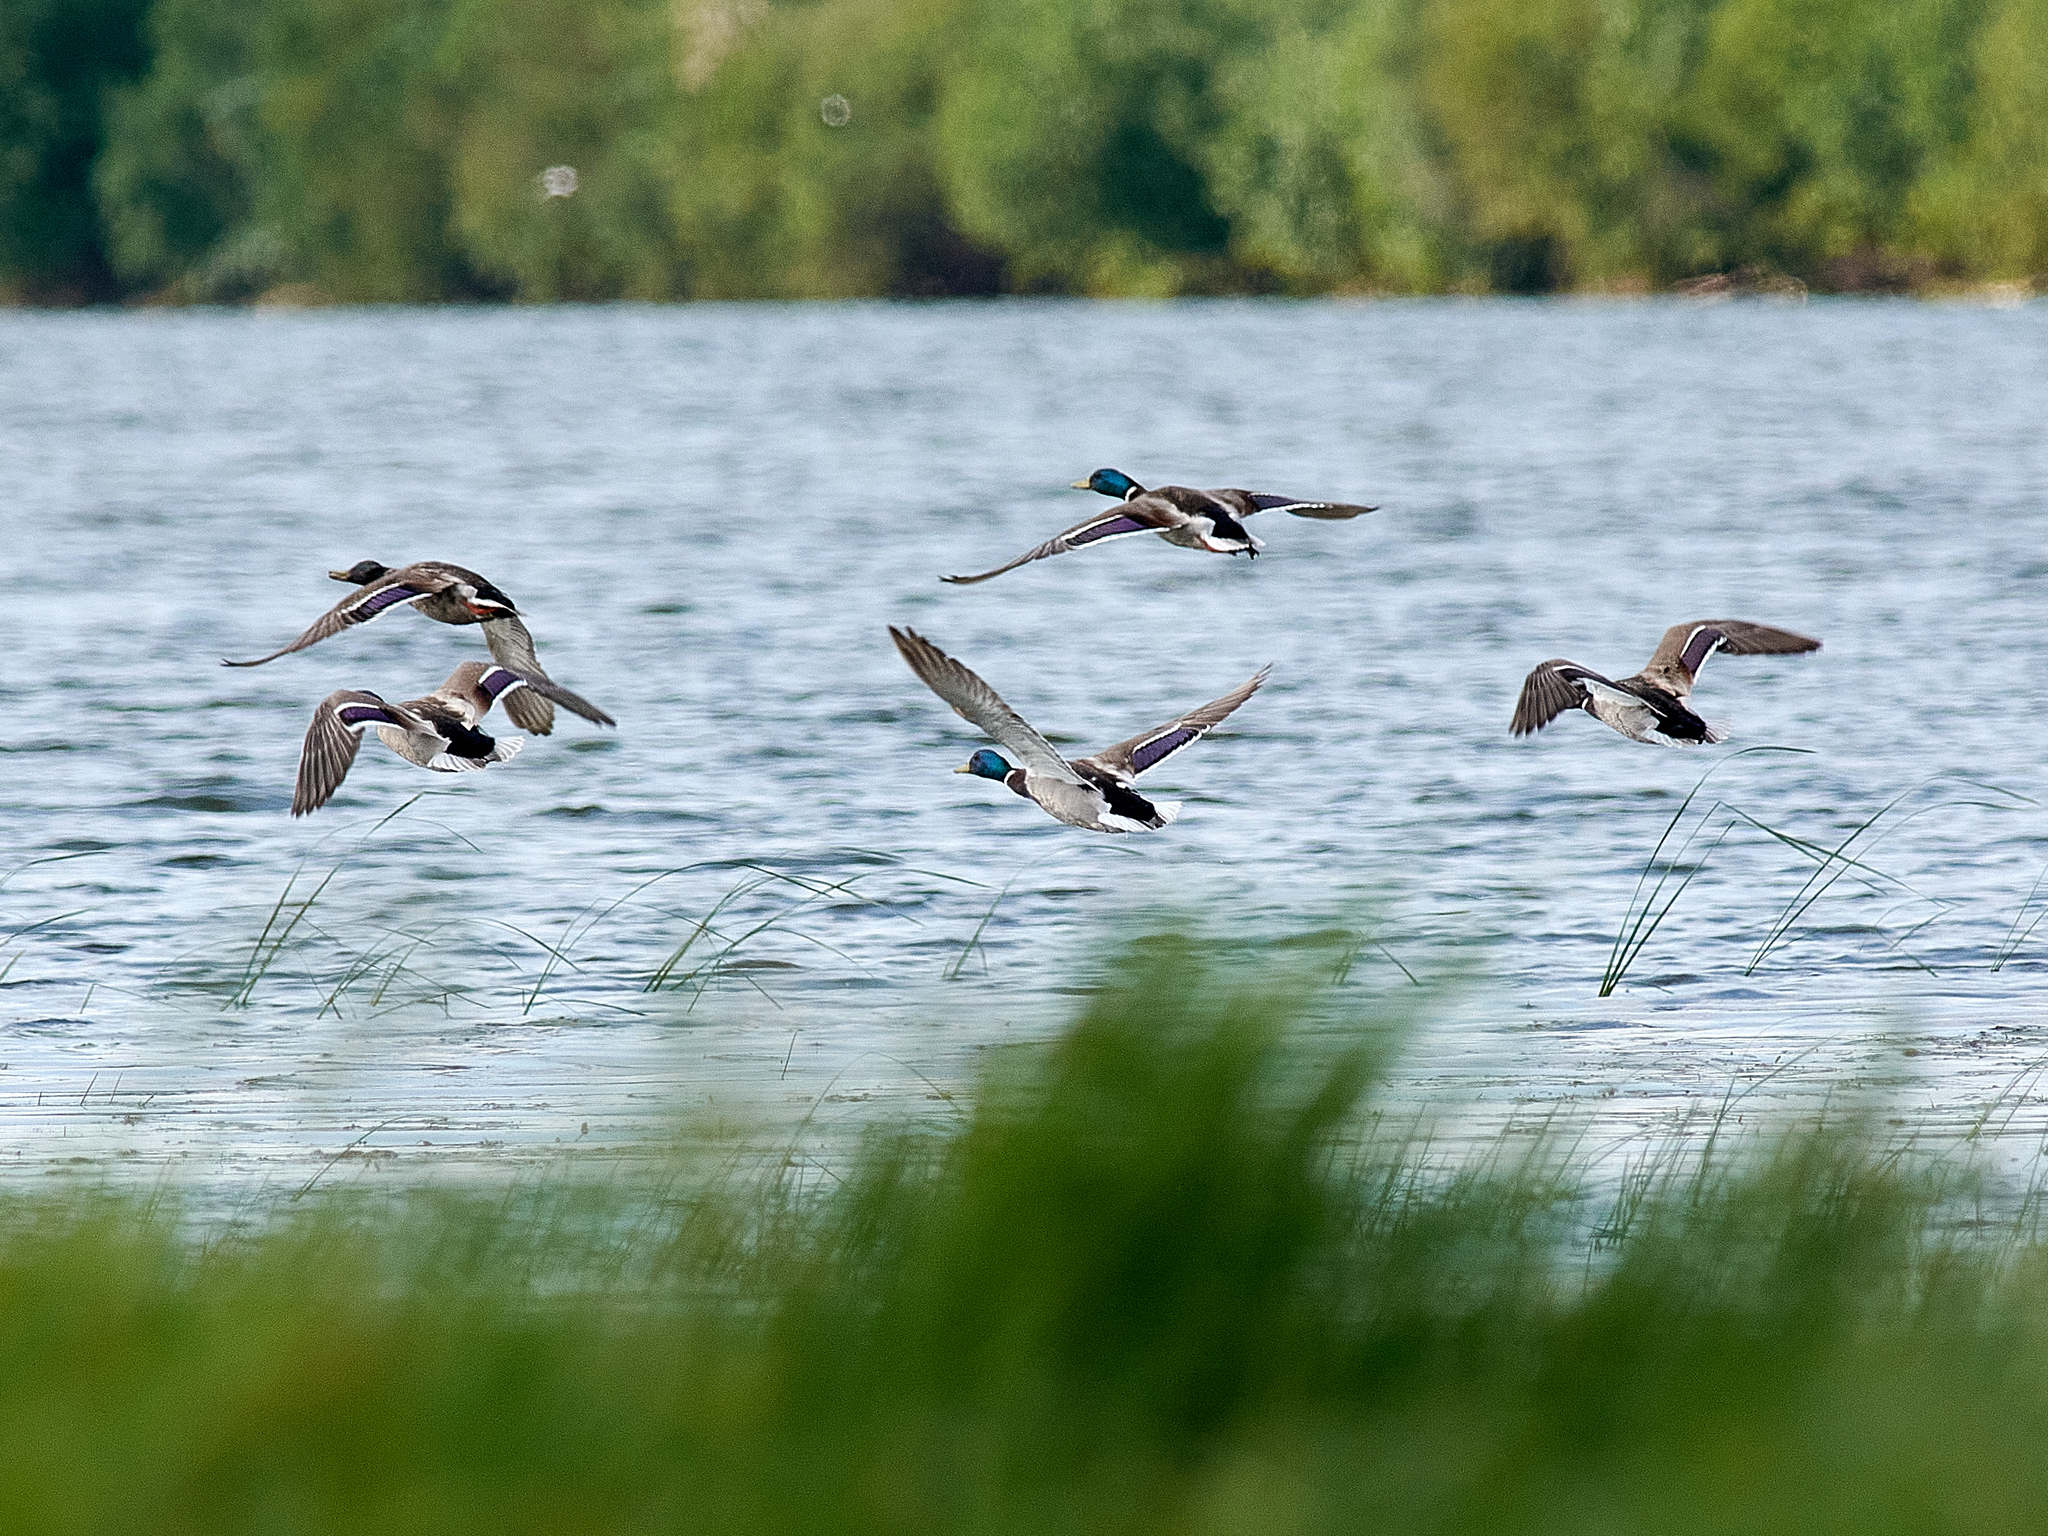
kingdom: Animalia
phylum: Chordata
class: Aves
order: Anseriformes
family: Anatidae
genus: Anas
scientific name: Anas platyrhynchos
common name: Mallard
